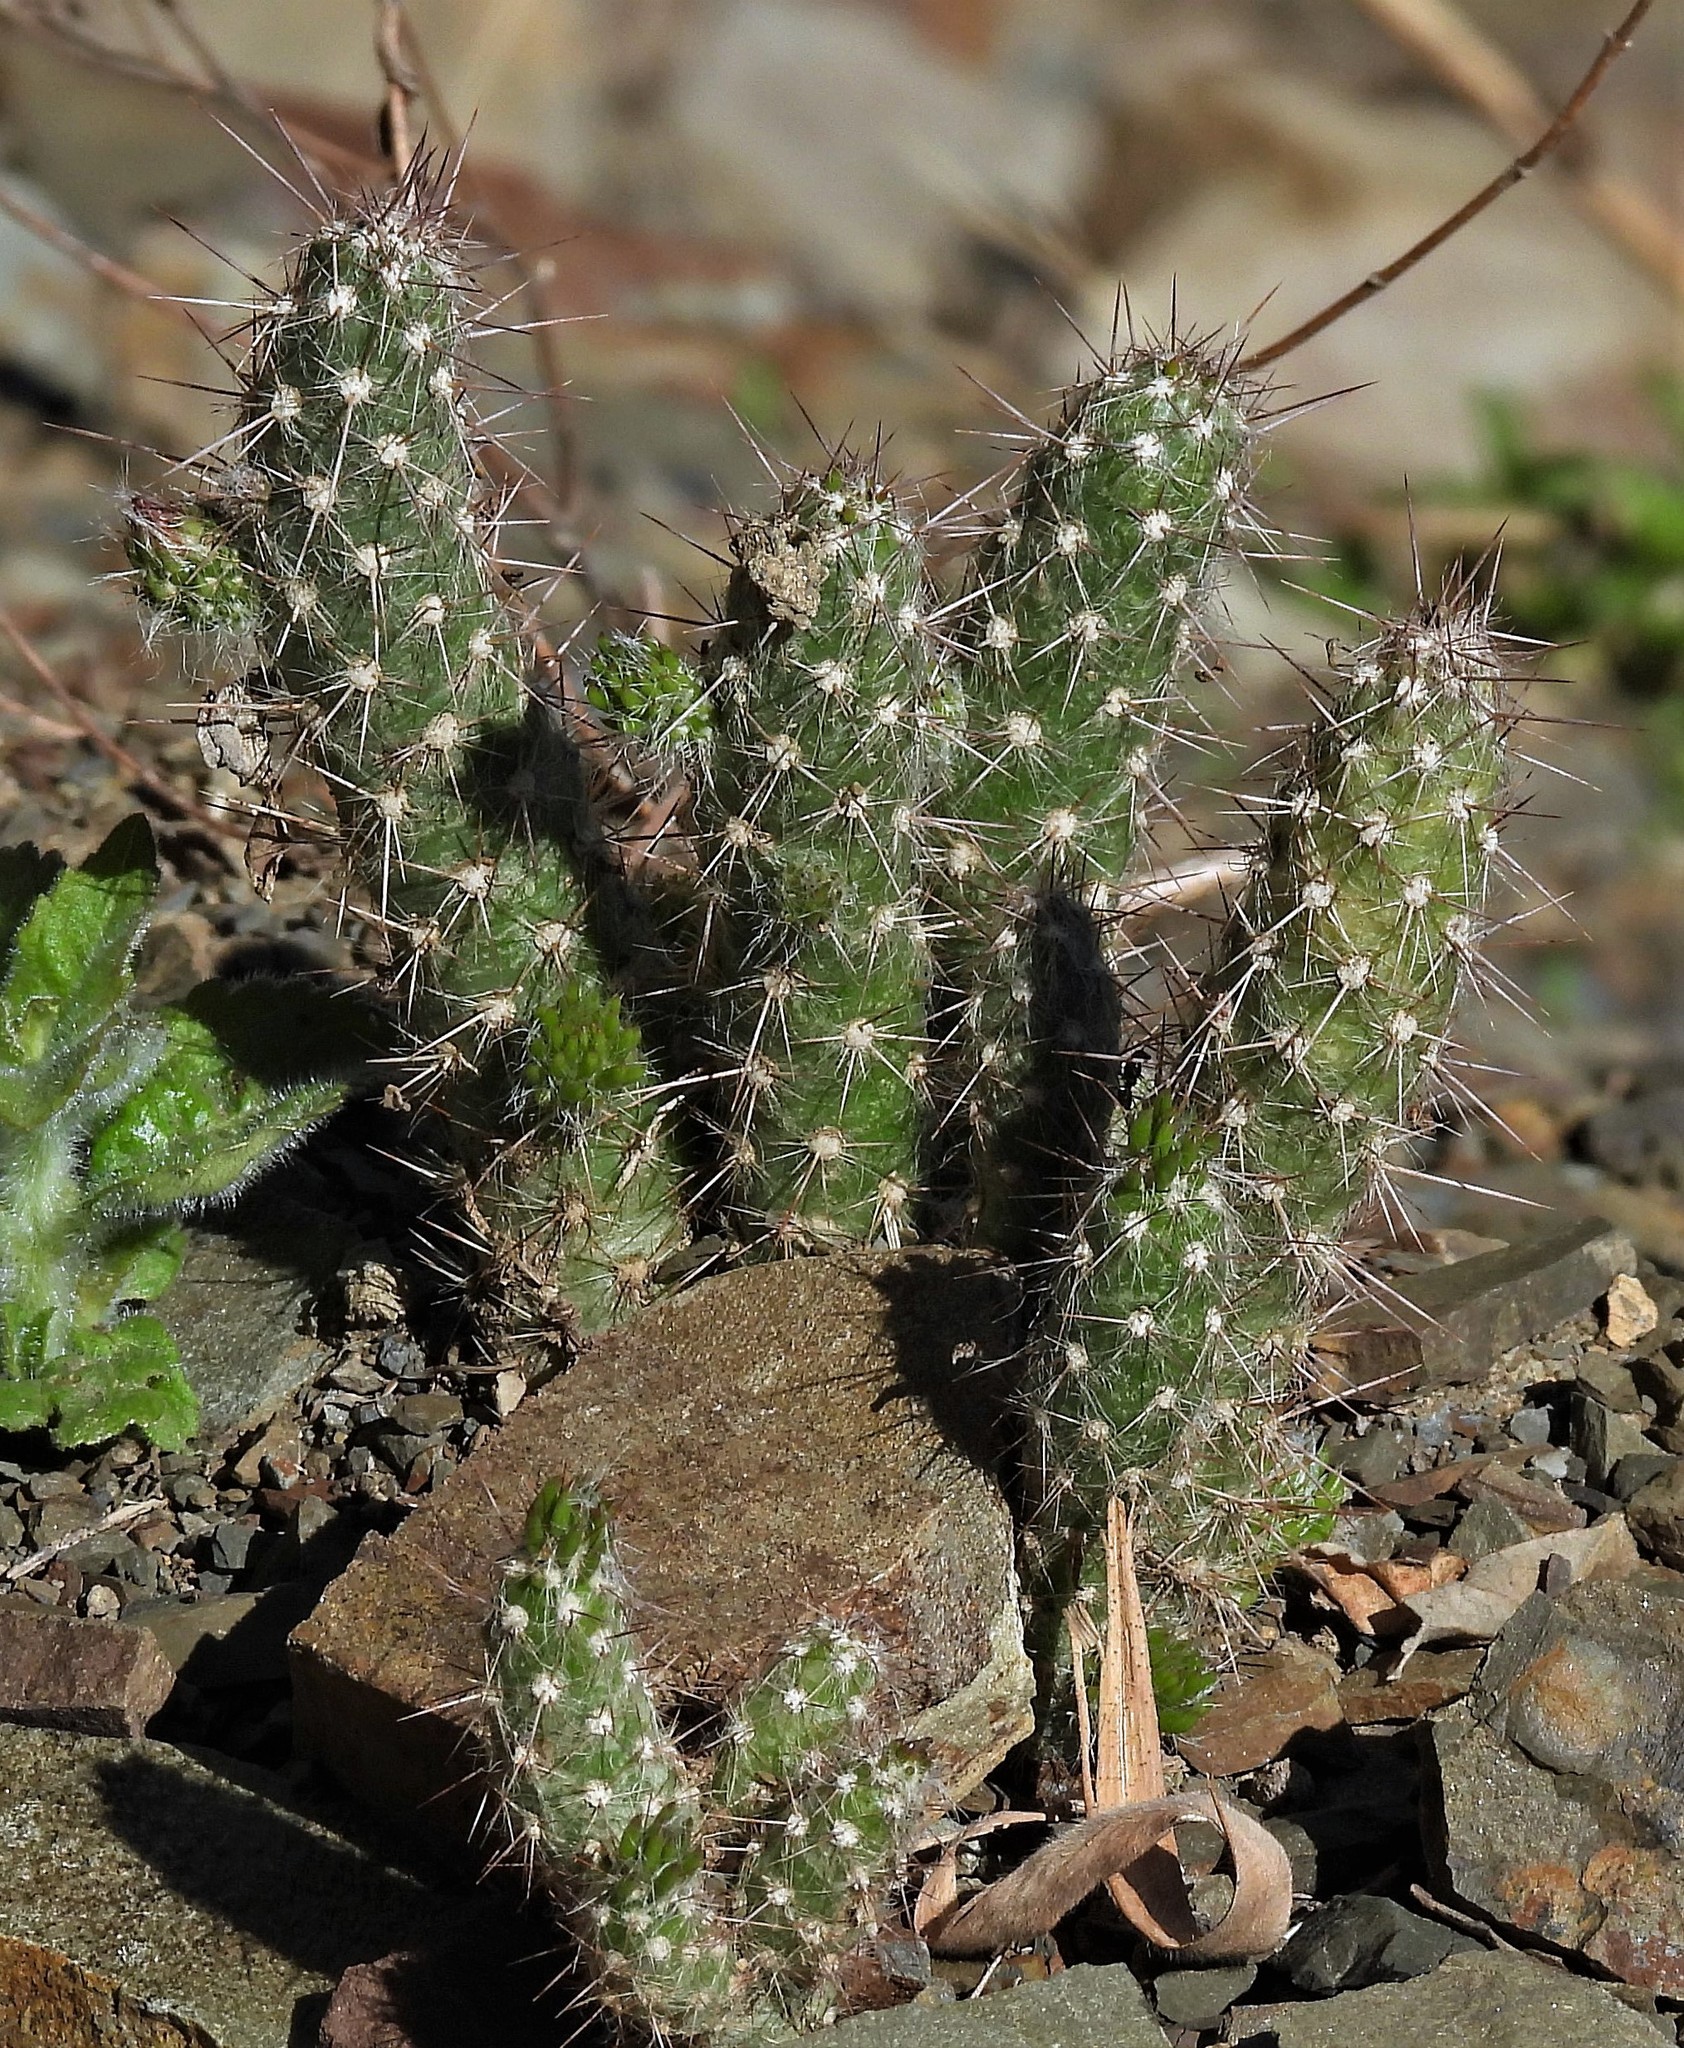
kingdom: Plantae
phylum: Tracheophyta
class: Magnoliopsida
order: Caryophyllales
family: Cactaceae
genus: Austrocylindropuntia
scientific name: Austrocylindropuntia vestita
